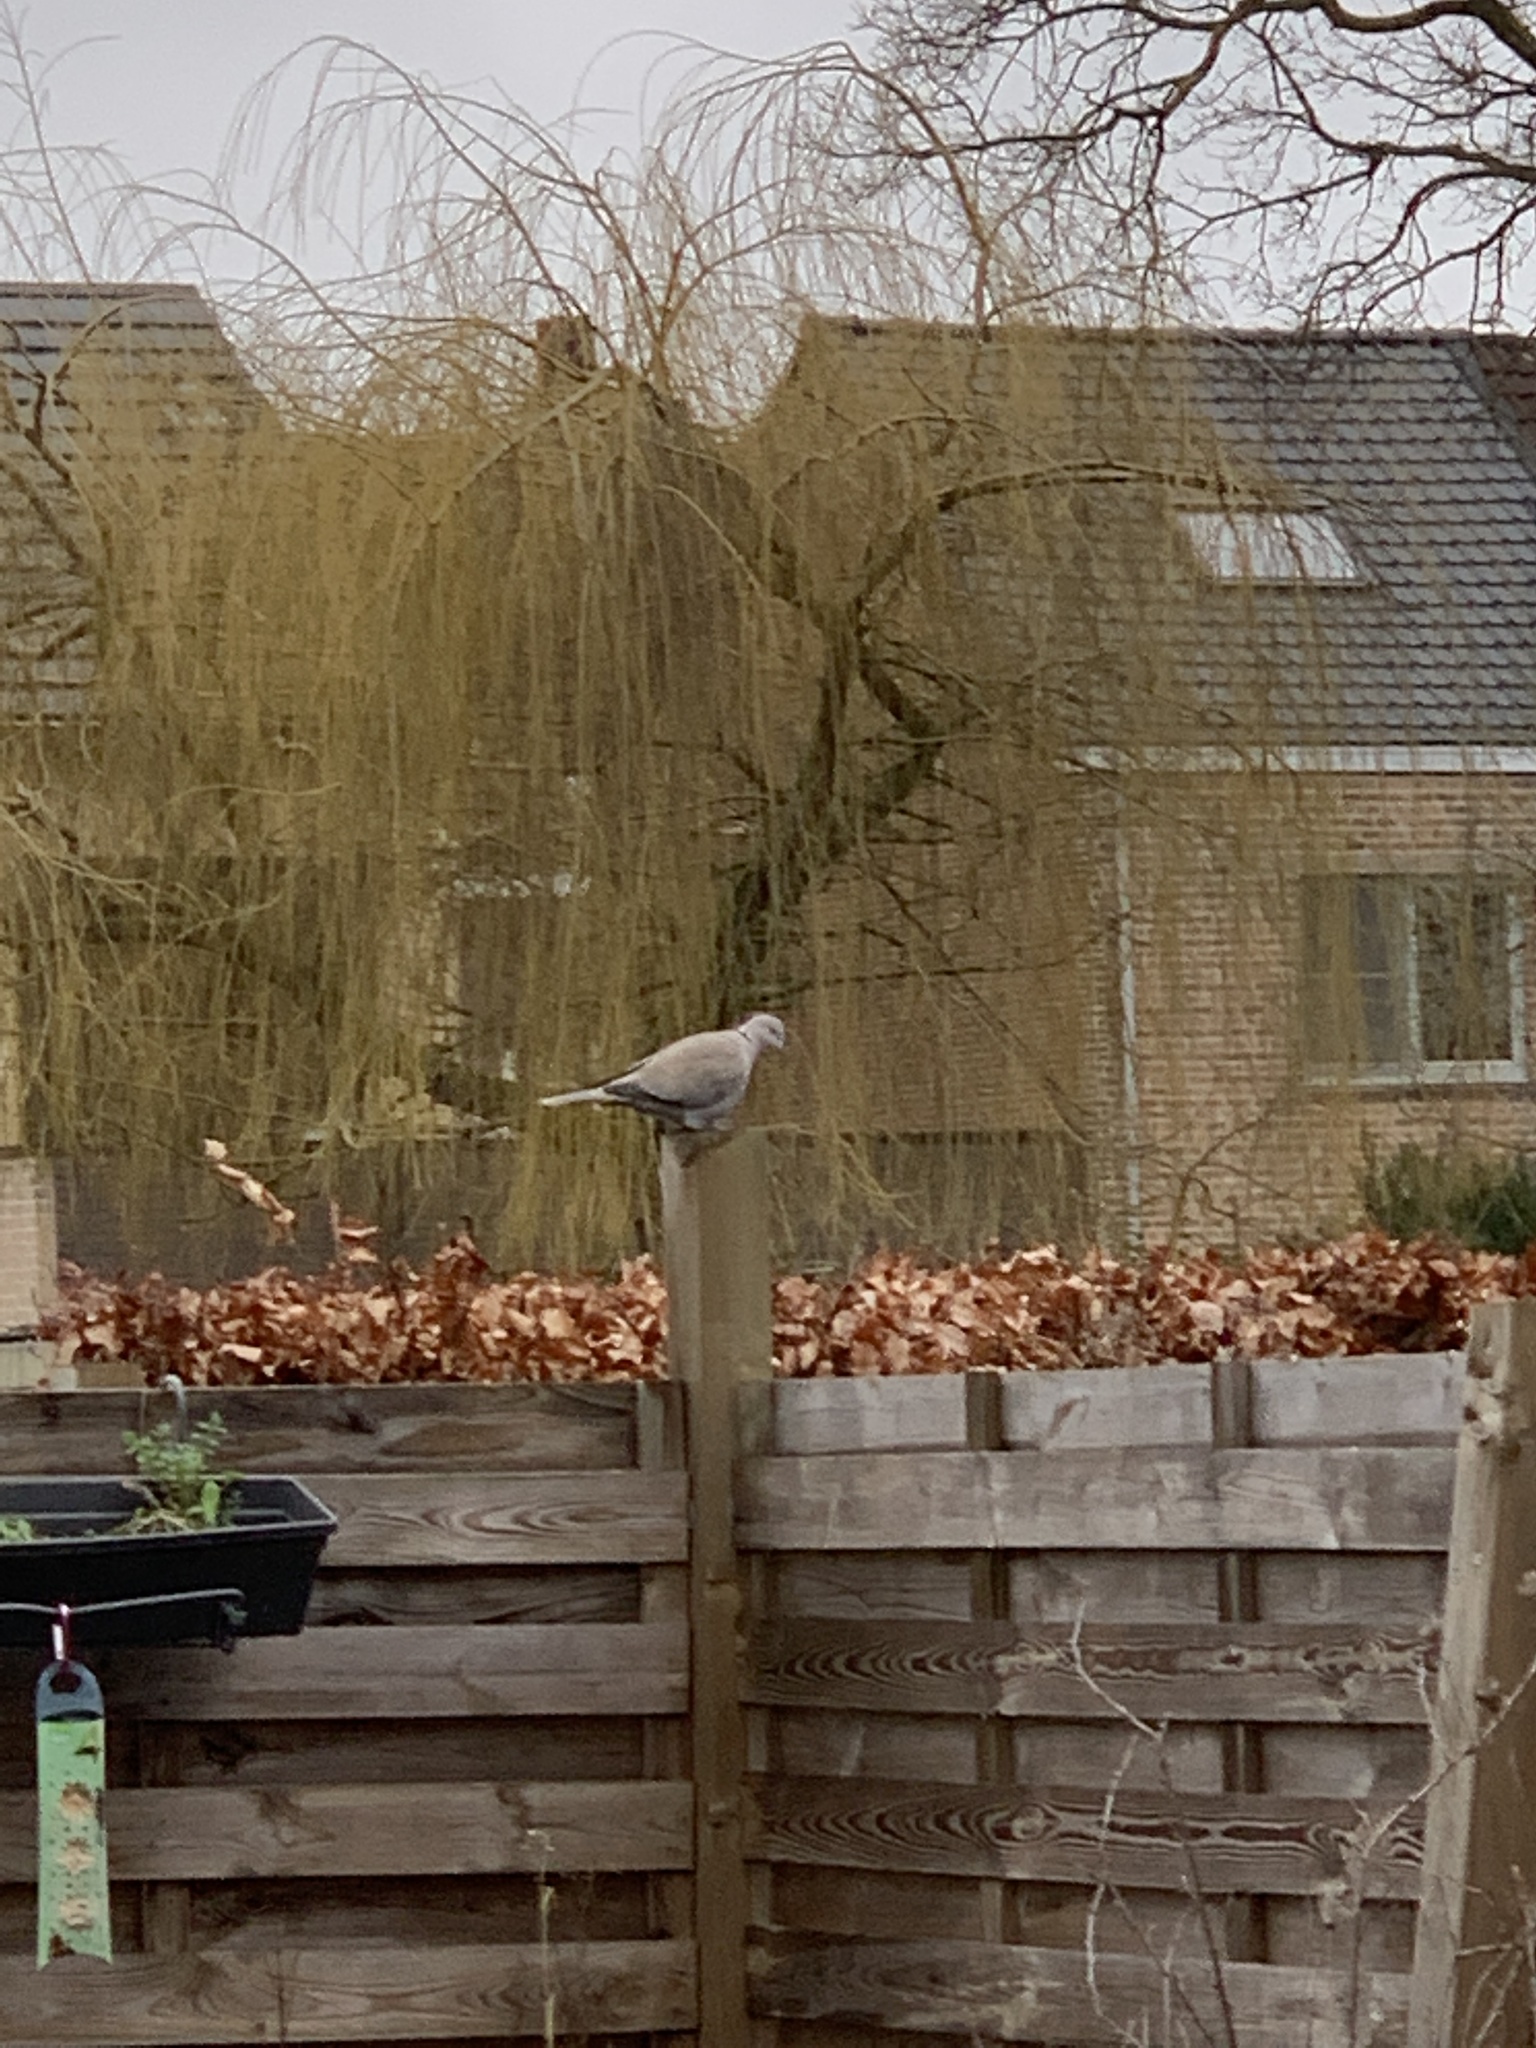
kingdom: Animalia
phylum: Chordata
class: Aves
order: Columbiformes
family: Columbidae
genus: Streptopelia
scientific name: Streptopelia decaocto
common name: Eurasian collared dove
